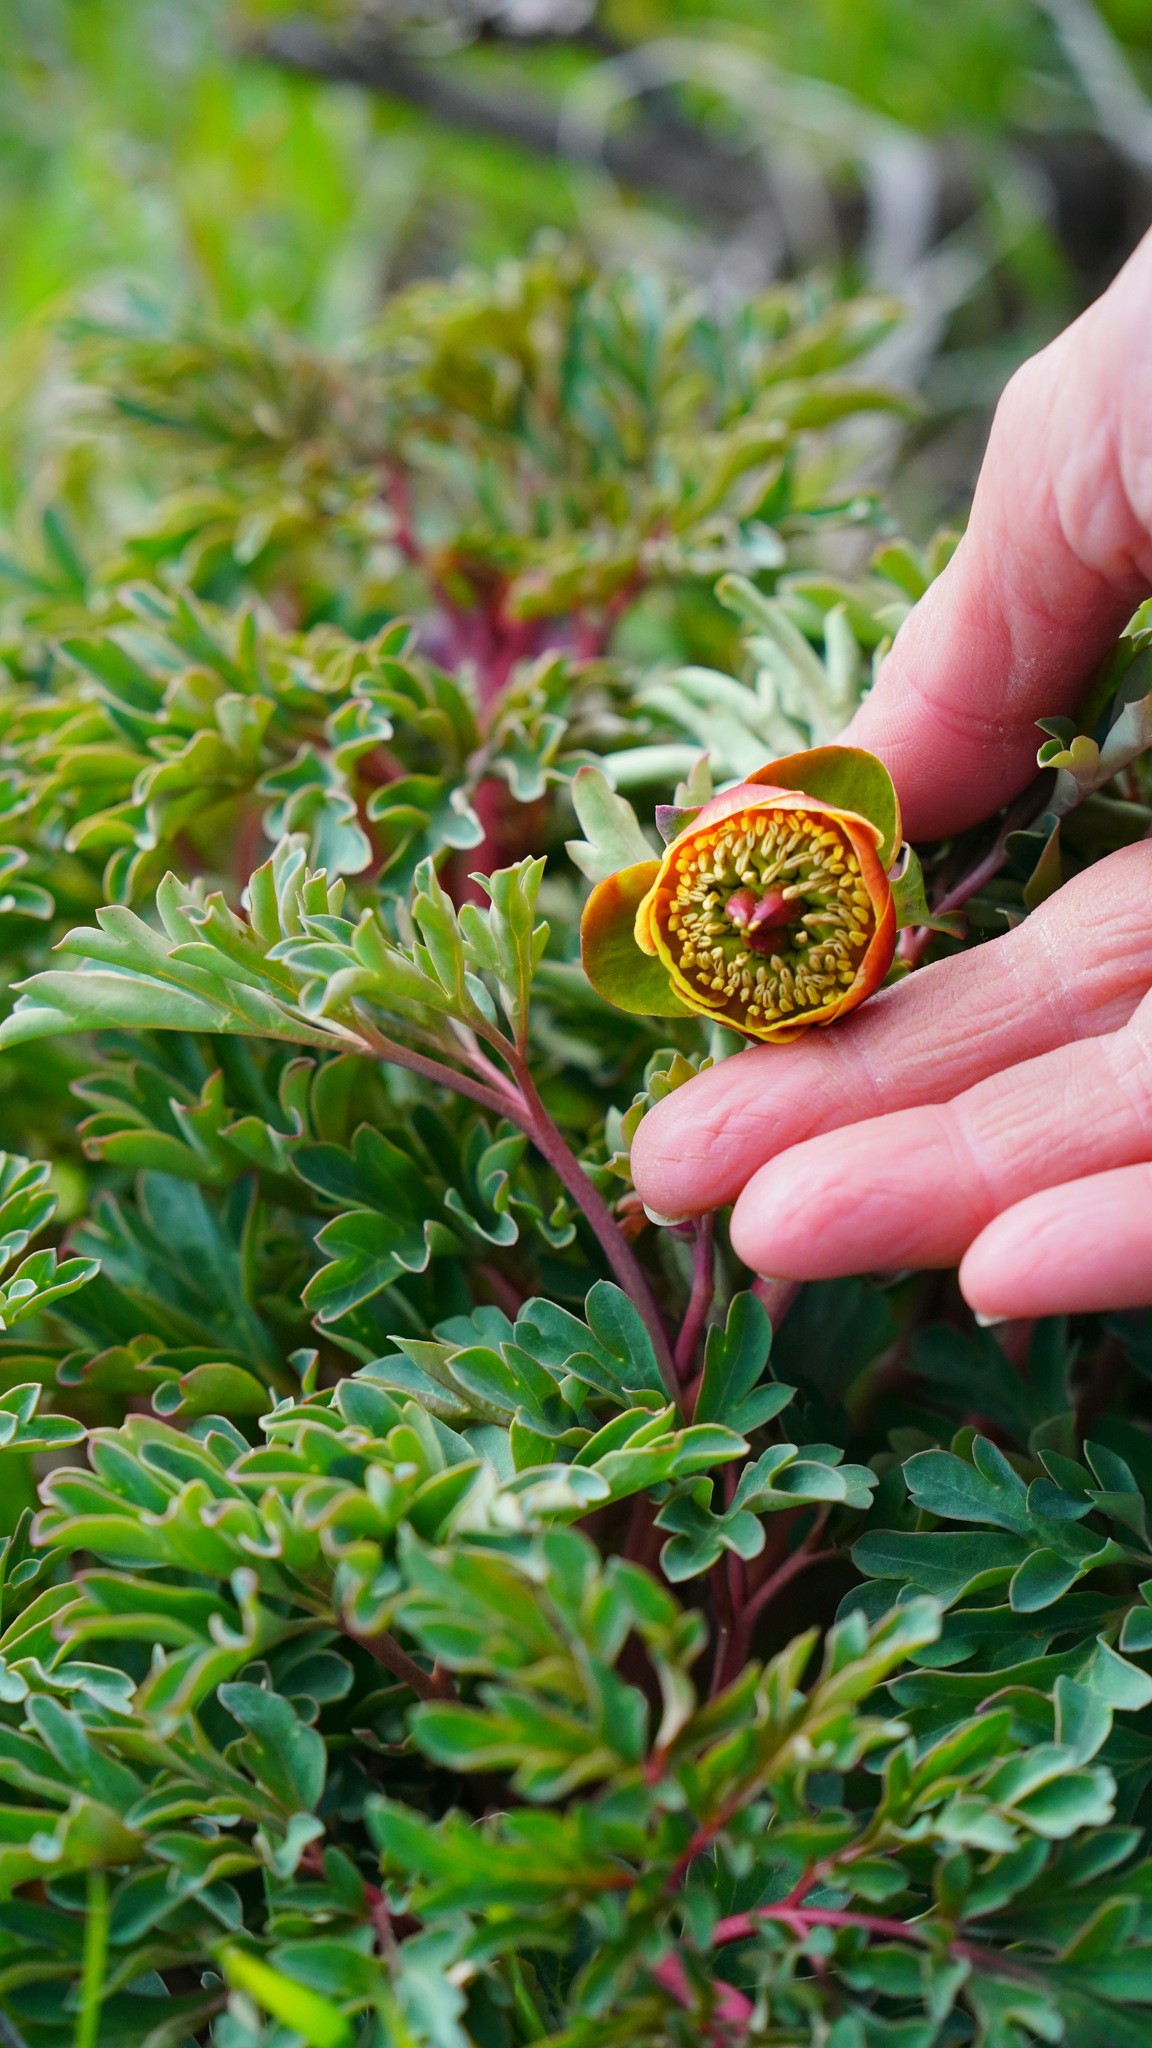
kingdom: Plantae
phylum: Tracheophyta
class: Magnoliopsida
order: Saxifragales
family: Paeoniaceae
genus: Paeonia
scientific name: Paeonia brownii
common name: Brown's peony
